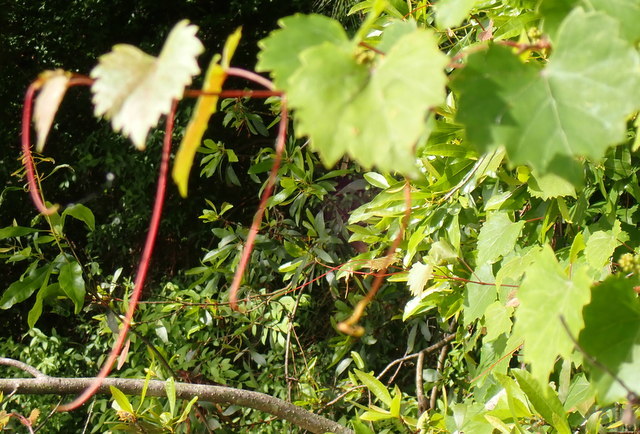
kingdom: Plantae
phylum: Tracheophyta
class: Magnoliopsida
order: Vitales
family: Vitaceae
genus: Vitis
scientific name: Vitis rotundifolia
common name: Muscadine grape
